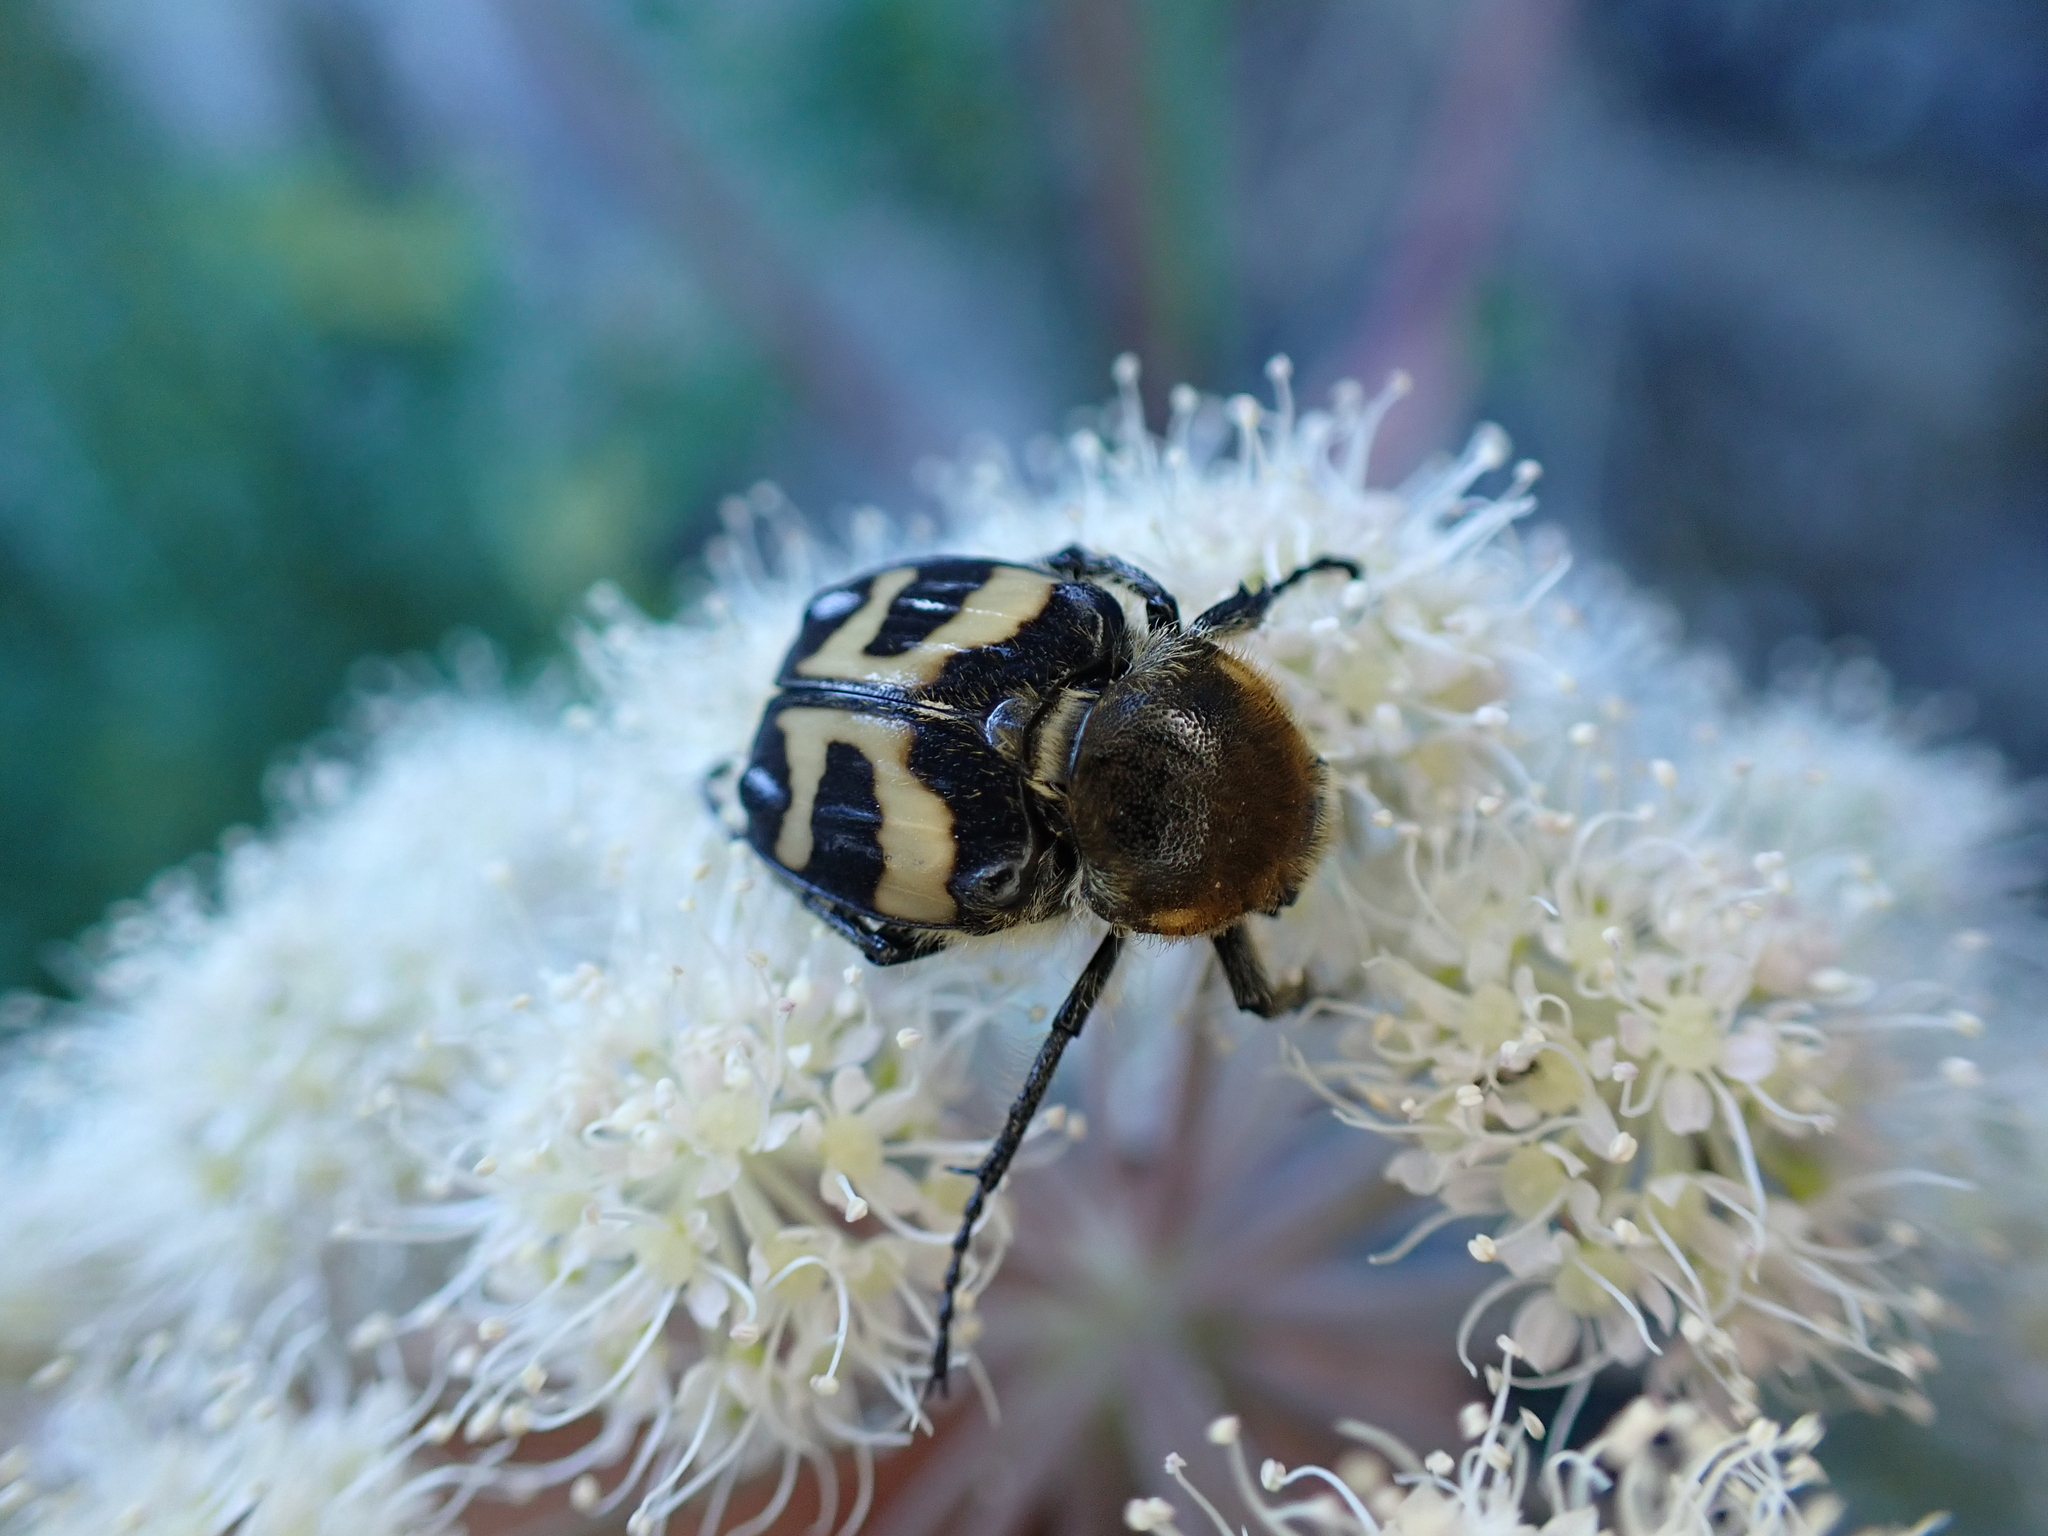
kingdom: Animalia
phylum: Arthropoda
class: Insecta
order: Coleoptera
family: Scarabaeidae
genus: Trichius
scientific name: Trichius fasciatus
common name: Bee beetle
